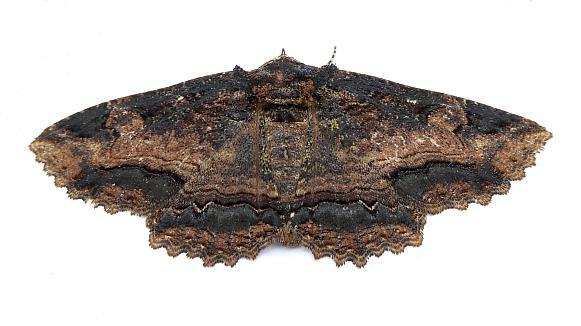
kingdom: Animalia
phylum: Arthropoda
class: Insecta
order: Lepidoptera
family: Erebidae
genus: Zale
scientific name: Zale minerea
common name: Colorful zale moth
